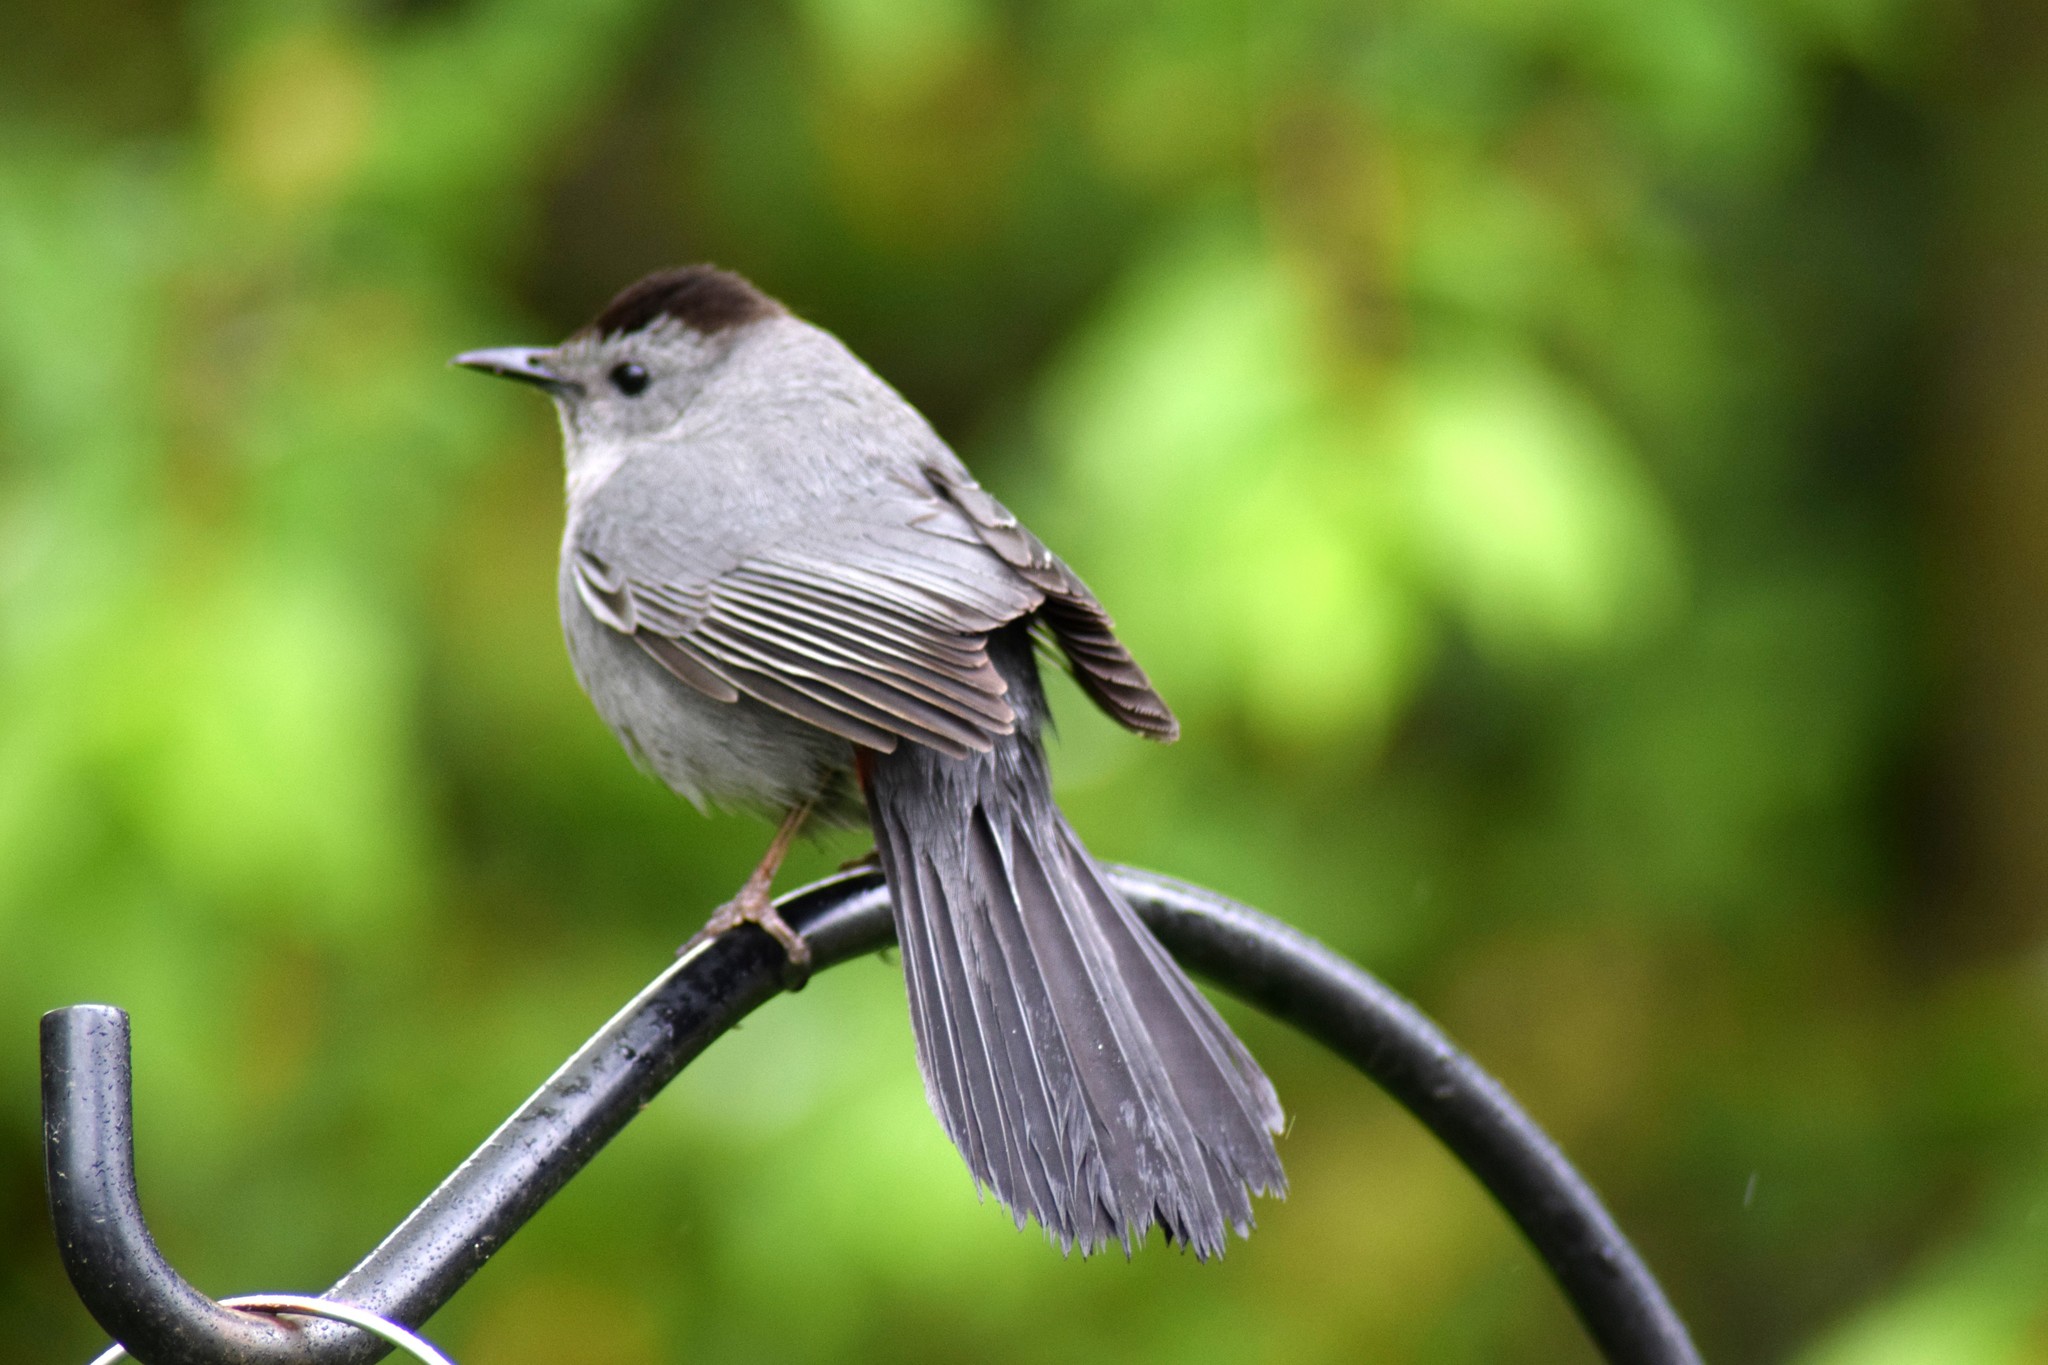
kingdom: Animalia
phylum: Chordata
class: Aves
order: Passeriformes
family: Mimidae
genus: Dumetella
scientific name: Dumetella carolinensis
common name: Gray catbird
